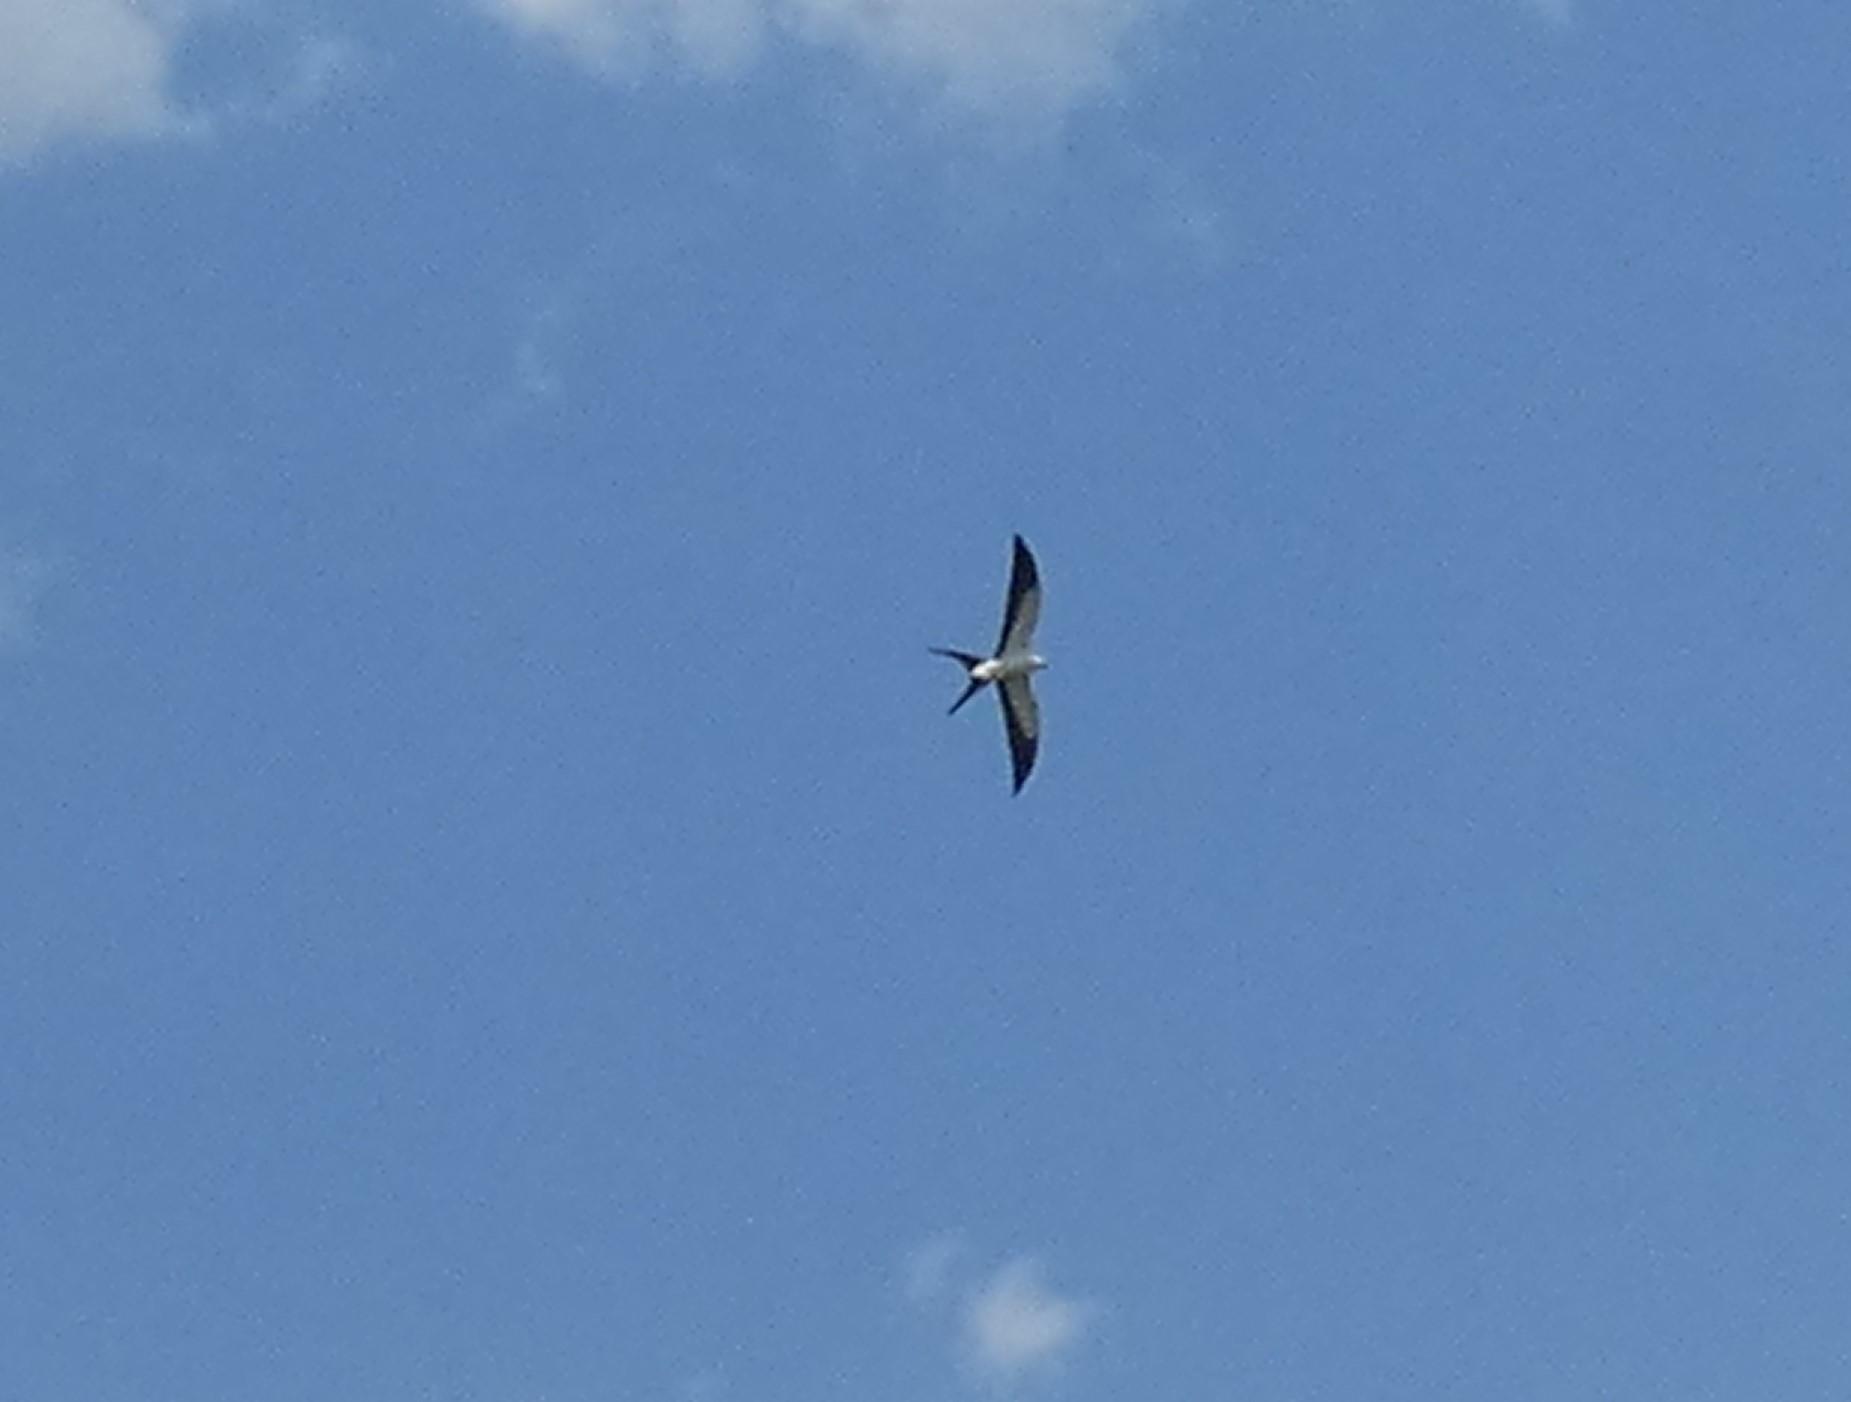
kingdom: Animalia
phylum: Chordata
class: Aves
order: Accipitriformes
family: Accipitridae
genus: Elanoides
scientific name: Elanoides forficatus
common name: Swallow-tailed kite
